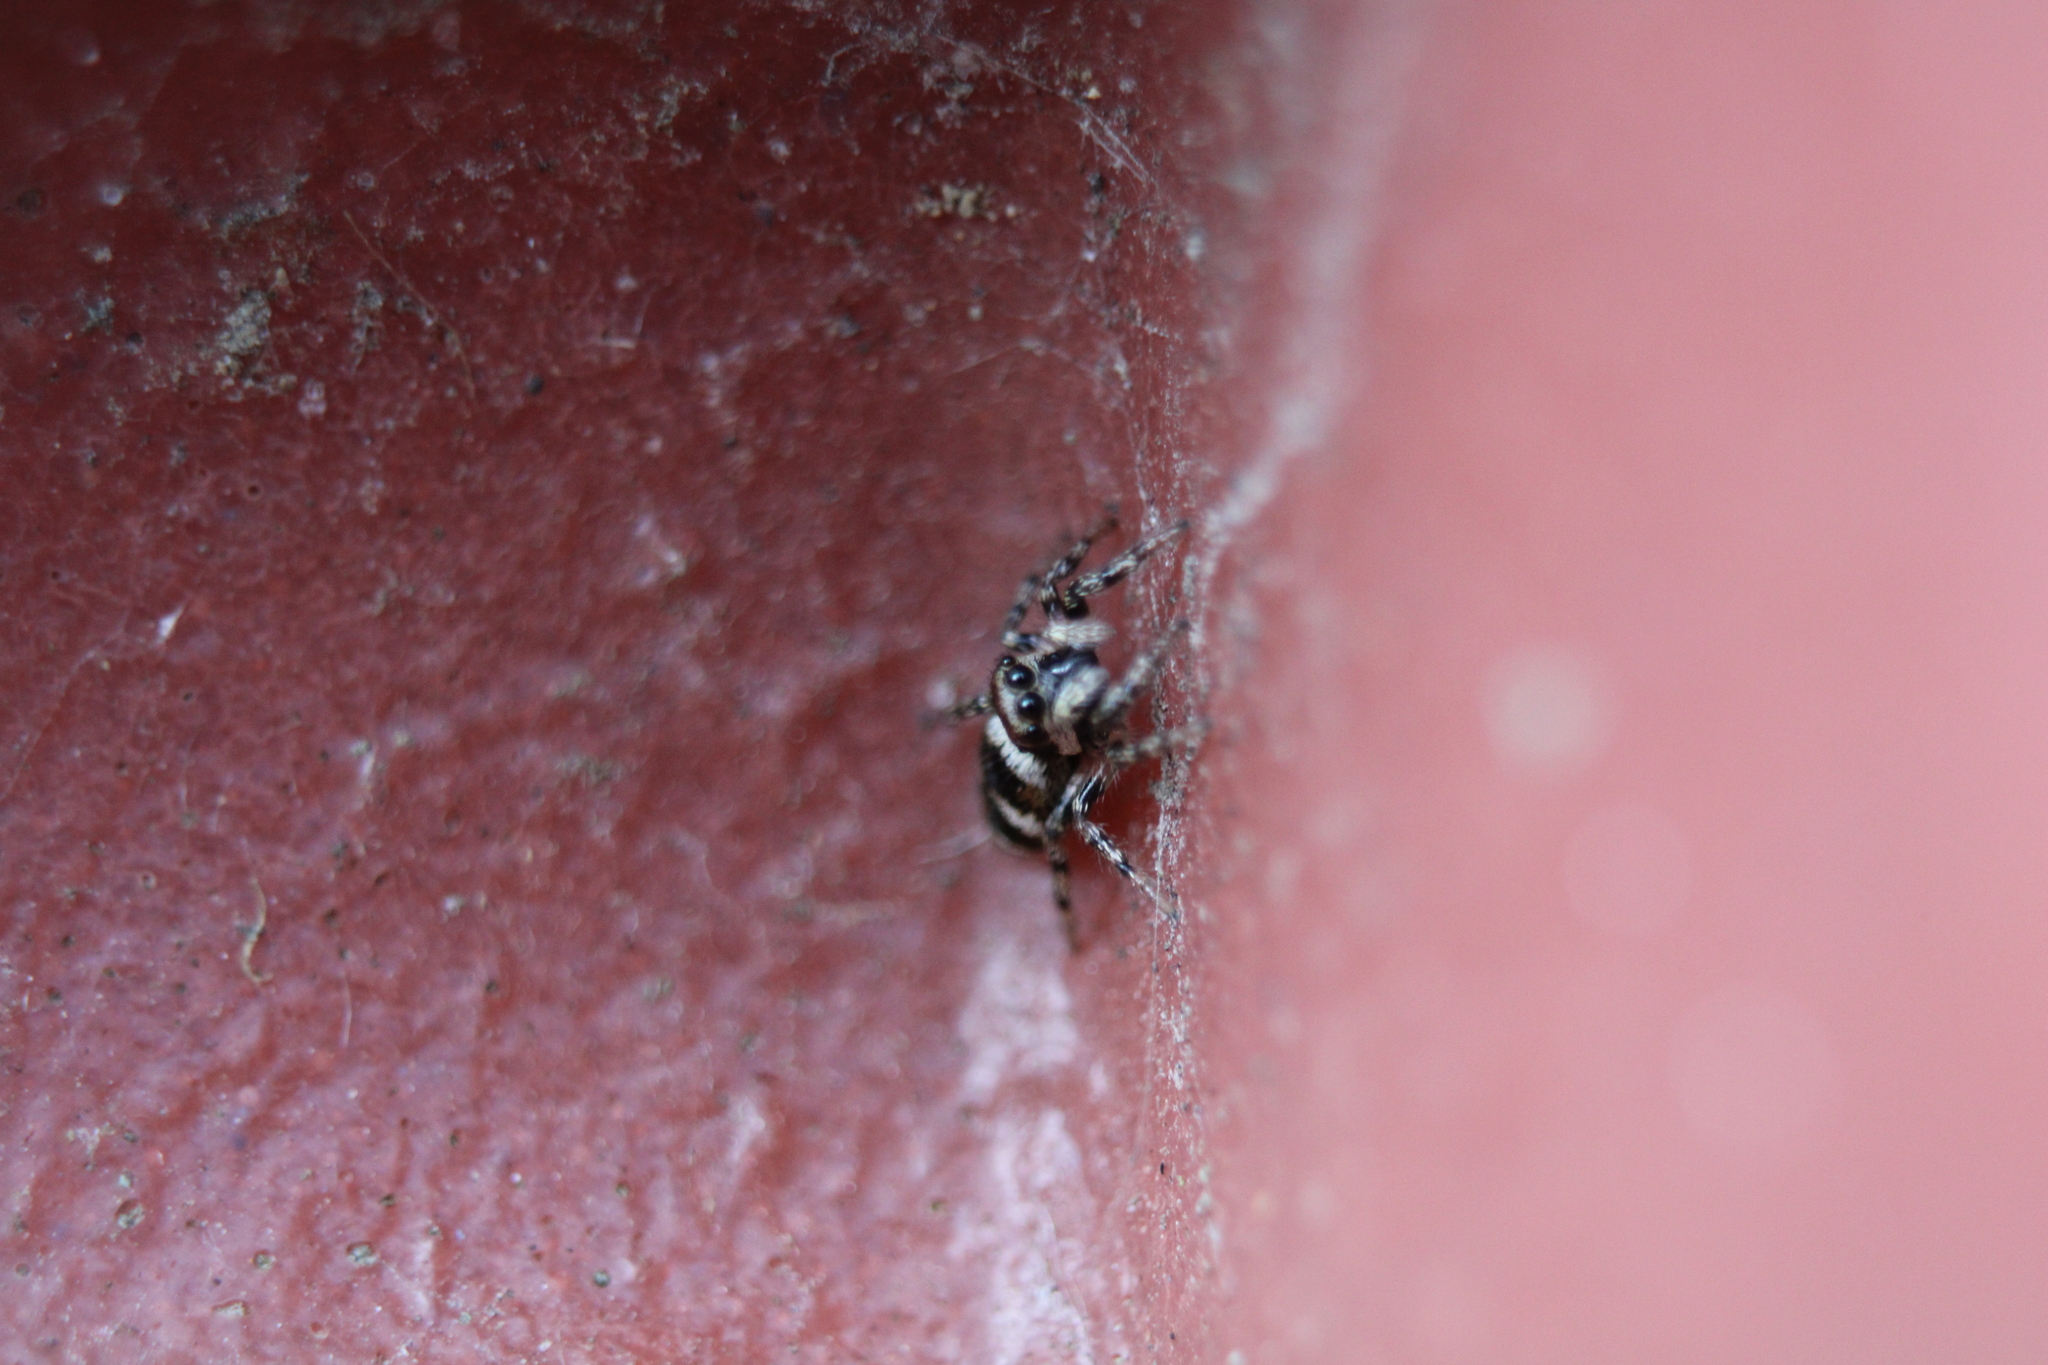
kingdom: Animalia
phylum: Arthropoda
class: Arachnida
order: Araneae
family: Salticidae
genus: Salticus
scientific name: Salticus scenicus
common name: Zebra jumper
